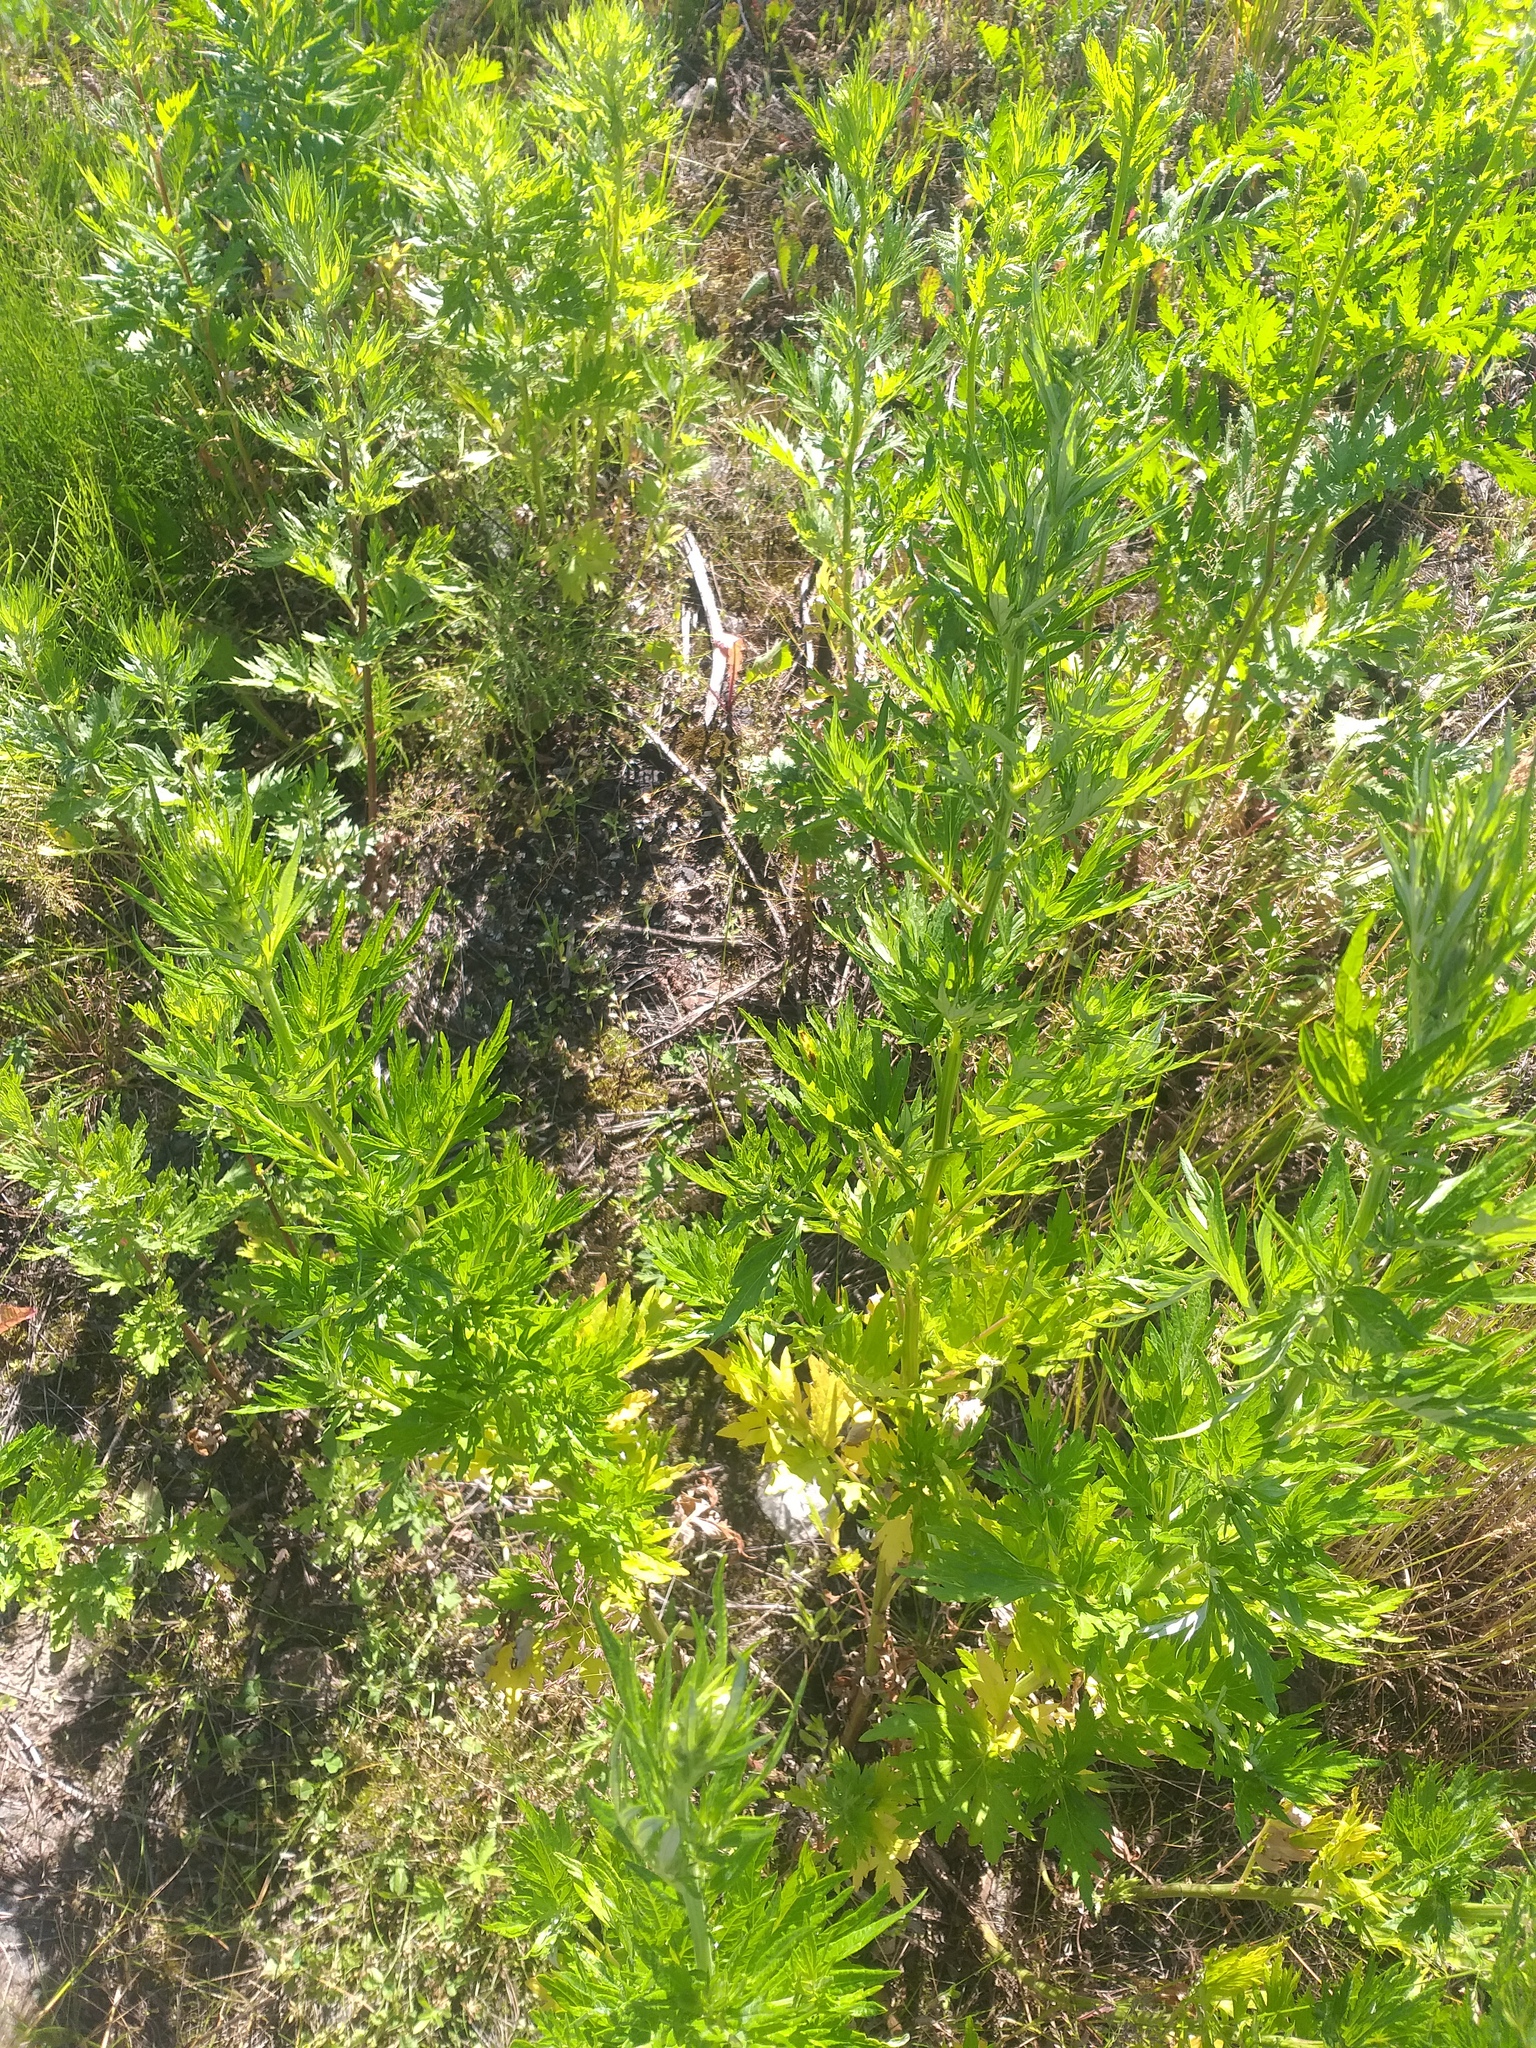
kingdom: Plantae
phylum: Tracheophyta
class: Magnoliopsida
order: Asterales
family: Asteraceae
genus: Artemisia
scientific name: Artemisia vulgaris
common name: Mugwort
